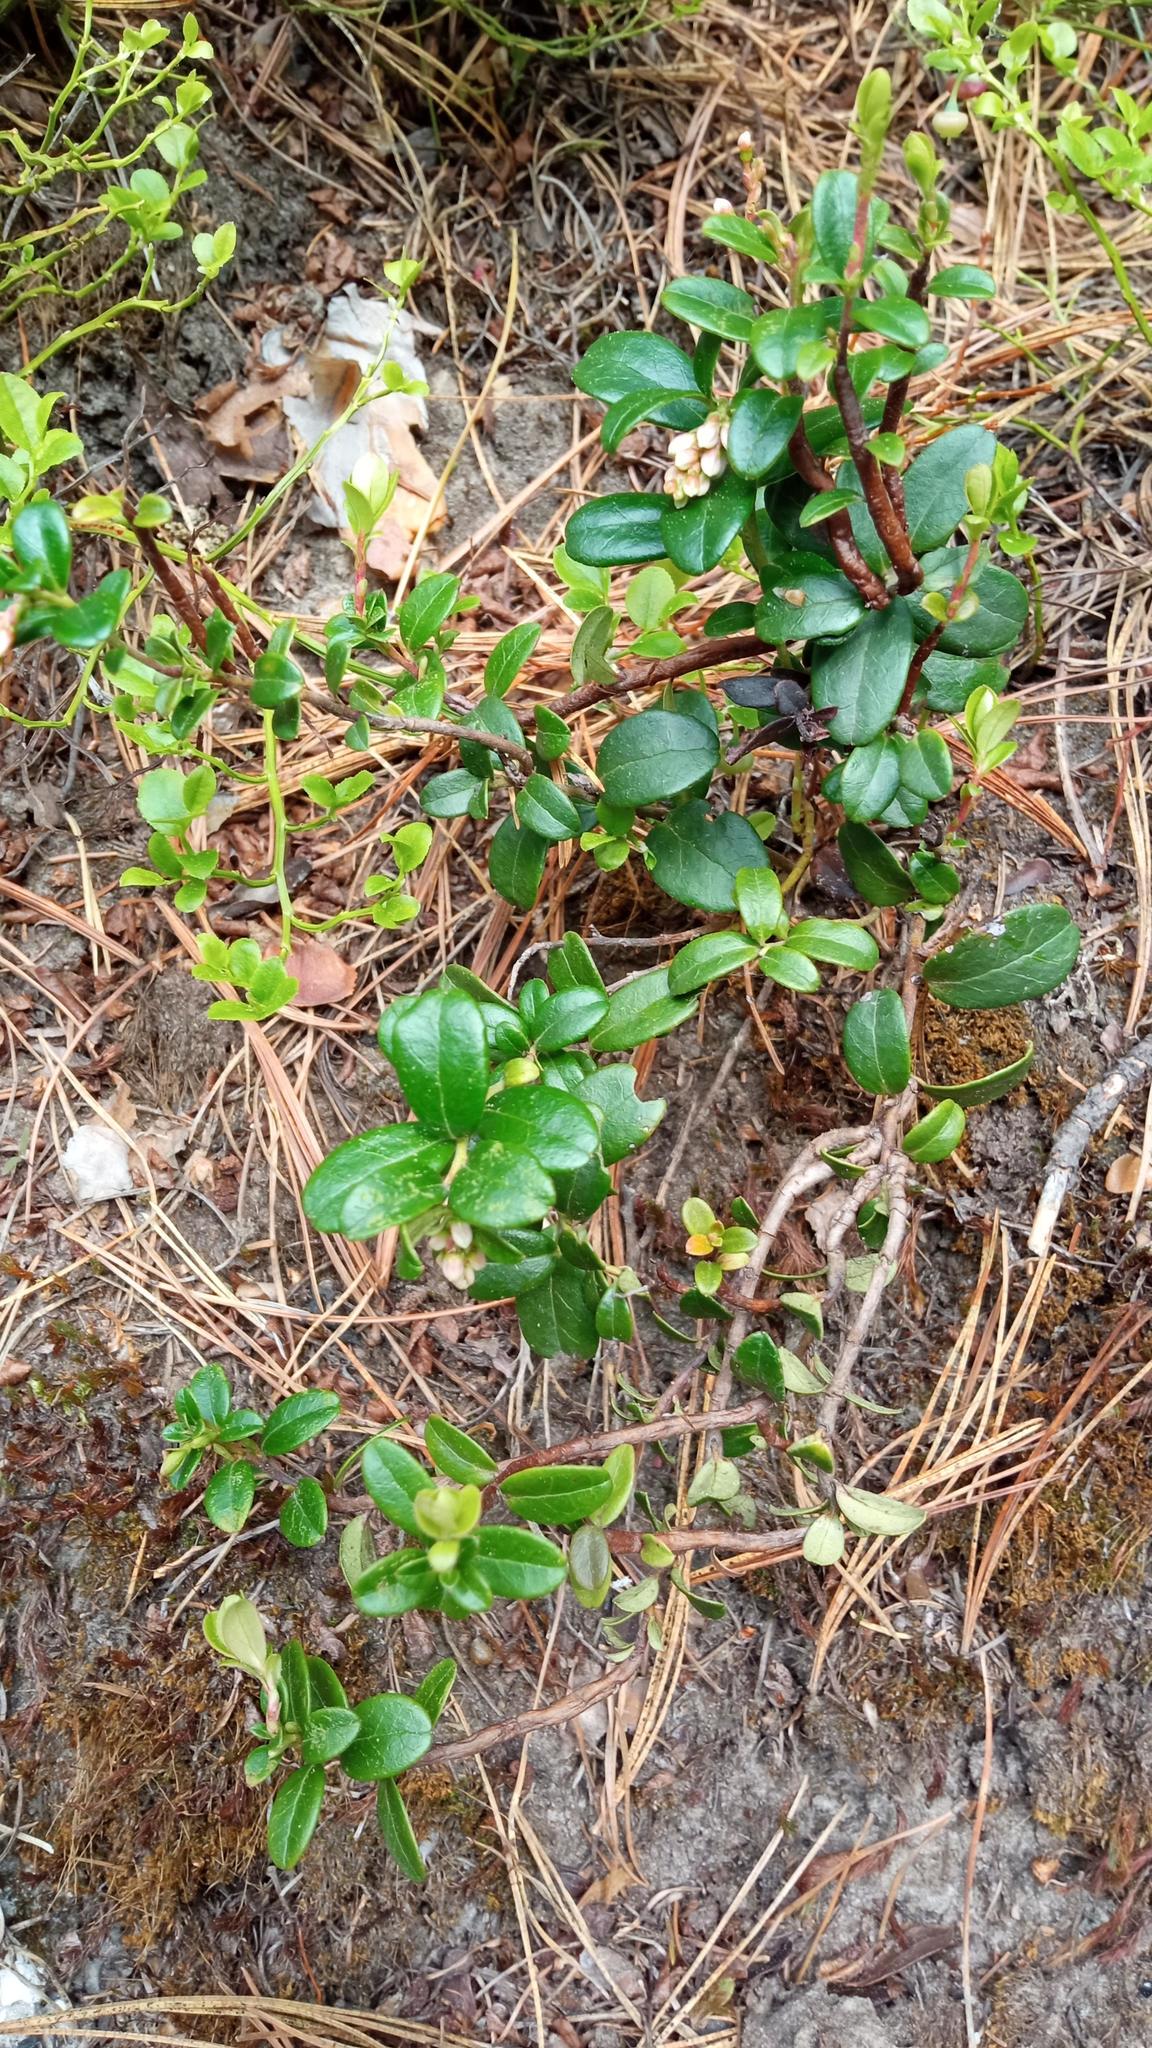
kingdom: Plantae
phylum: Tracheophyta
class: Magnoliopsida
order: Ericales
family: Ericaceae
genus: Vaccinium
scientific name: Vaccinium vitis-idaea
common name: Cowberry
